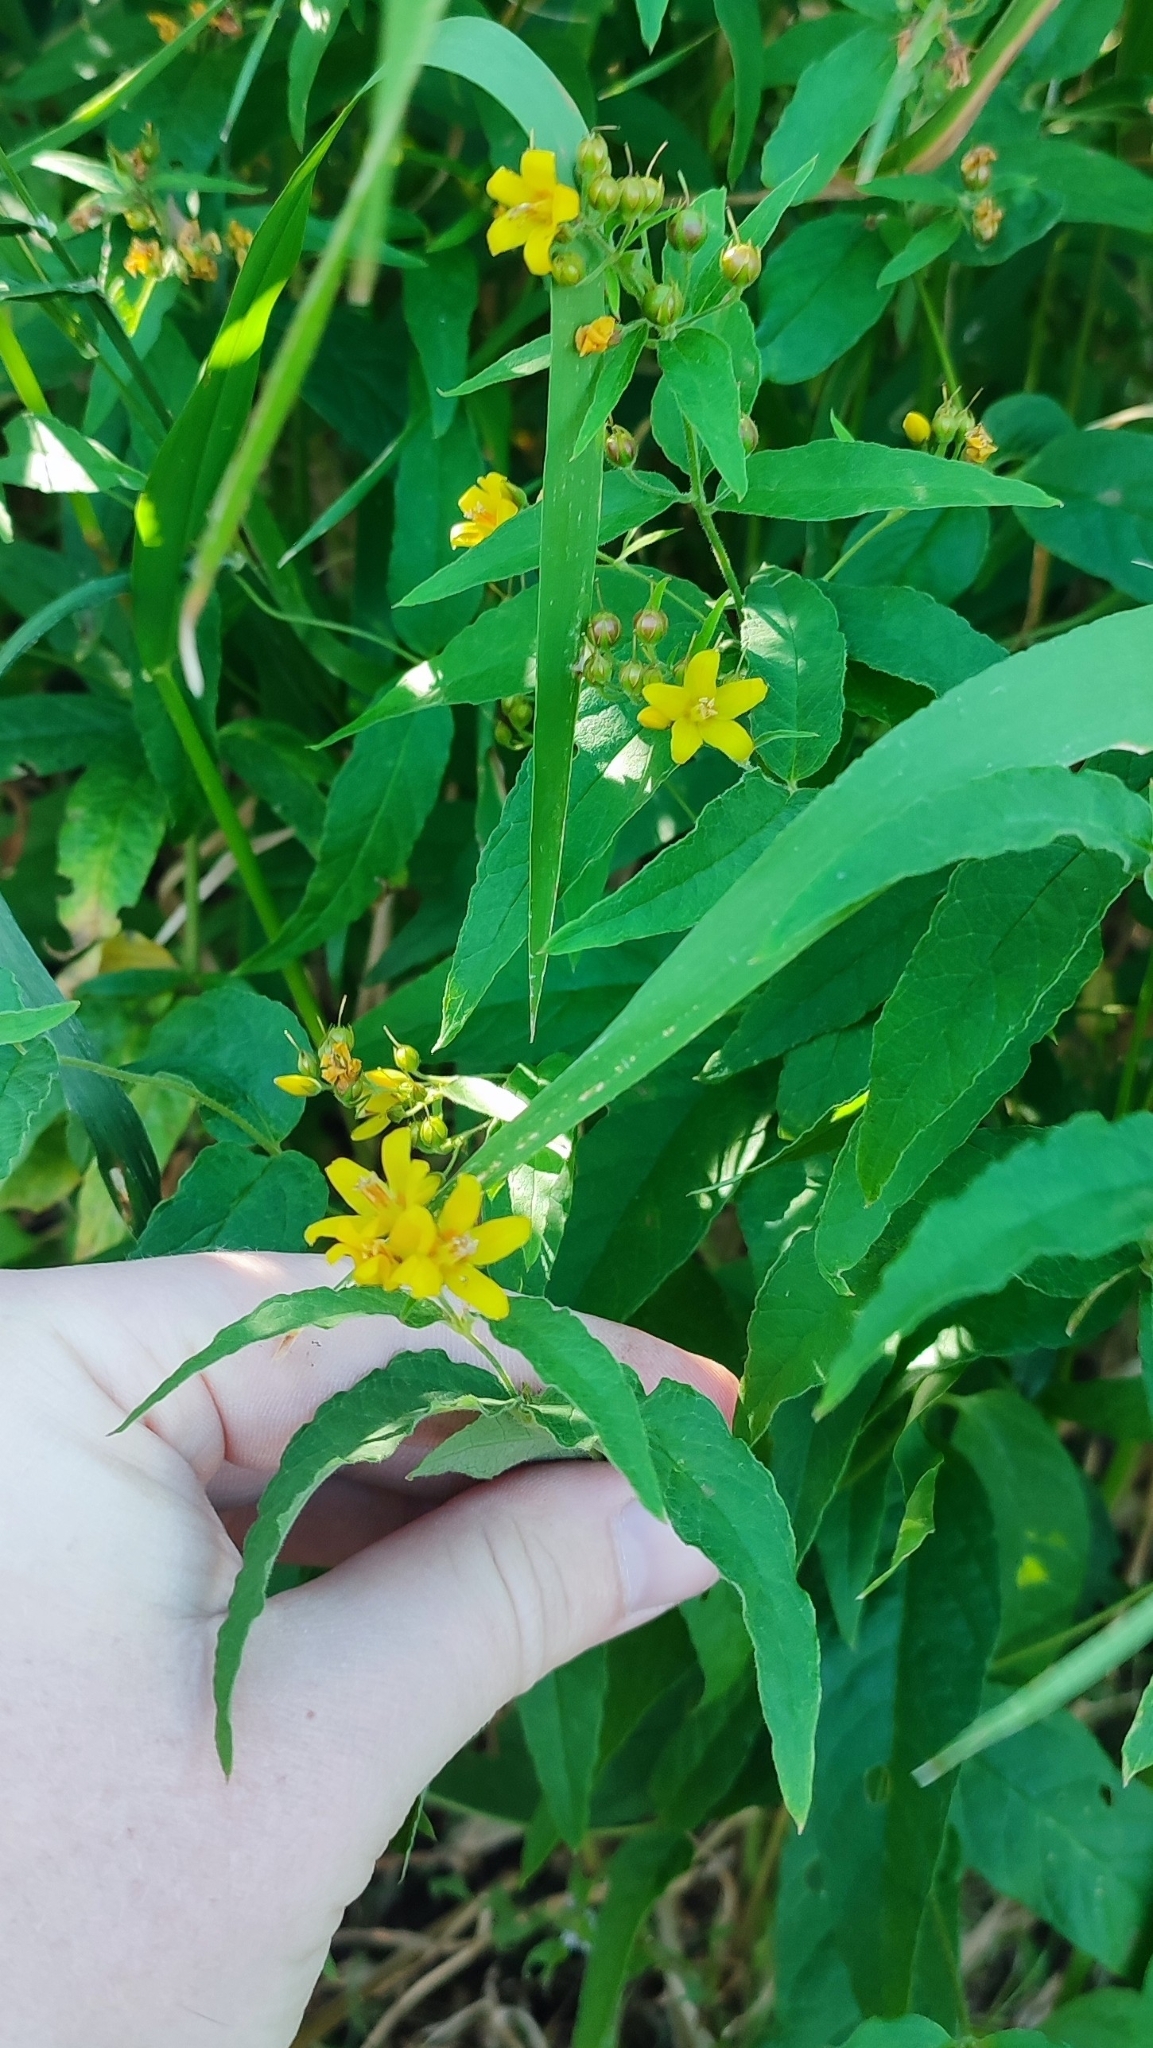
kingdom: Plantae
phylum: Tracheophyta
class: Magnoliopsida
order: Ericales
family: Primulaceae
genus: Lysimachia
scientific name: Lysimachia vulgaris
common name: Yellow loosestrife
